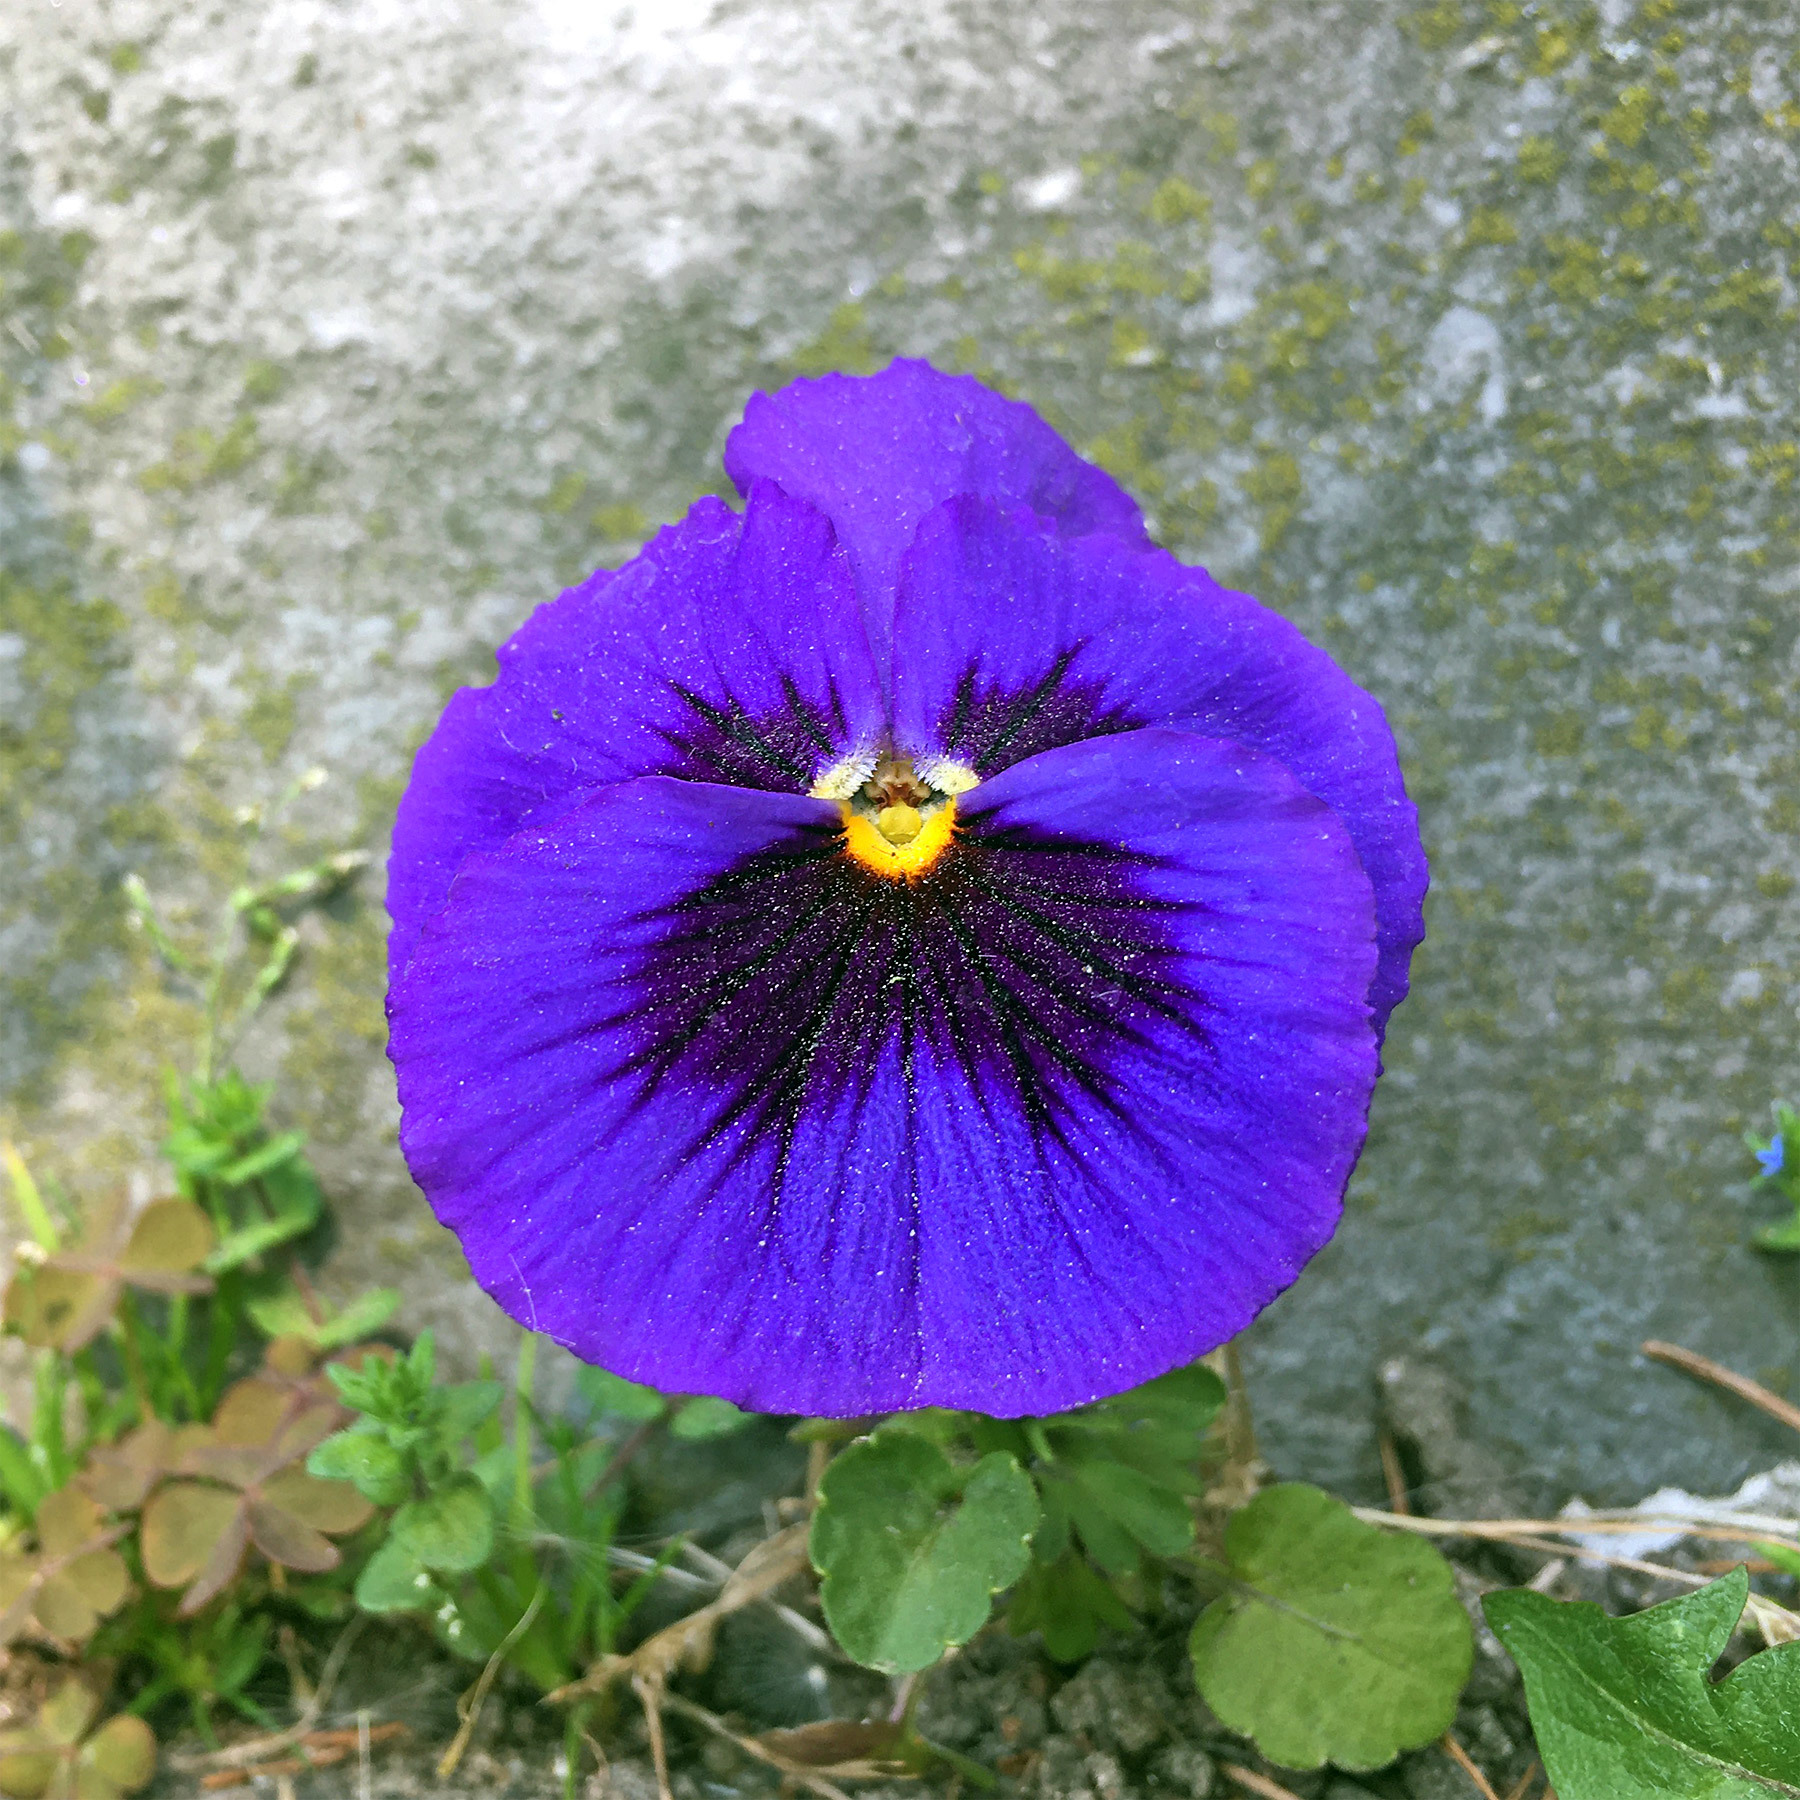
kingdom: Plantae
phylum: Tracheophyta
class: Magnoliopsida
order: Malpighiales
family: Violaceae
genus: Viola
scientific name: Viola wittrockiana
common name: Garden pansy
